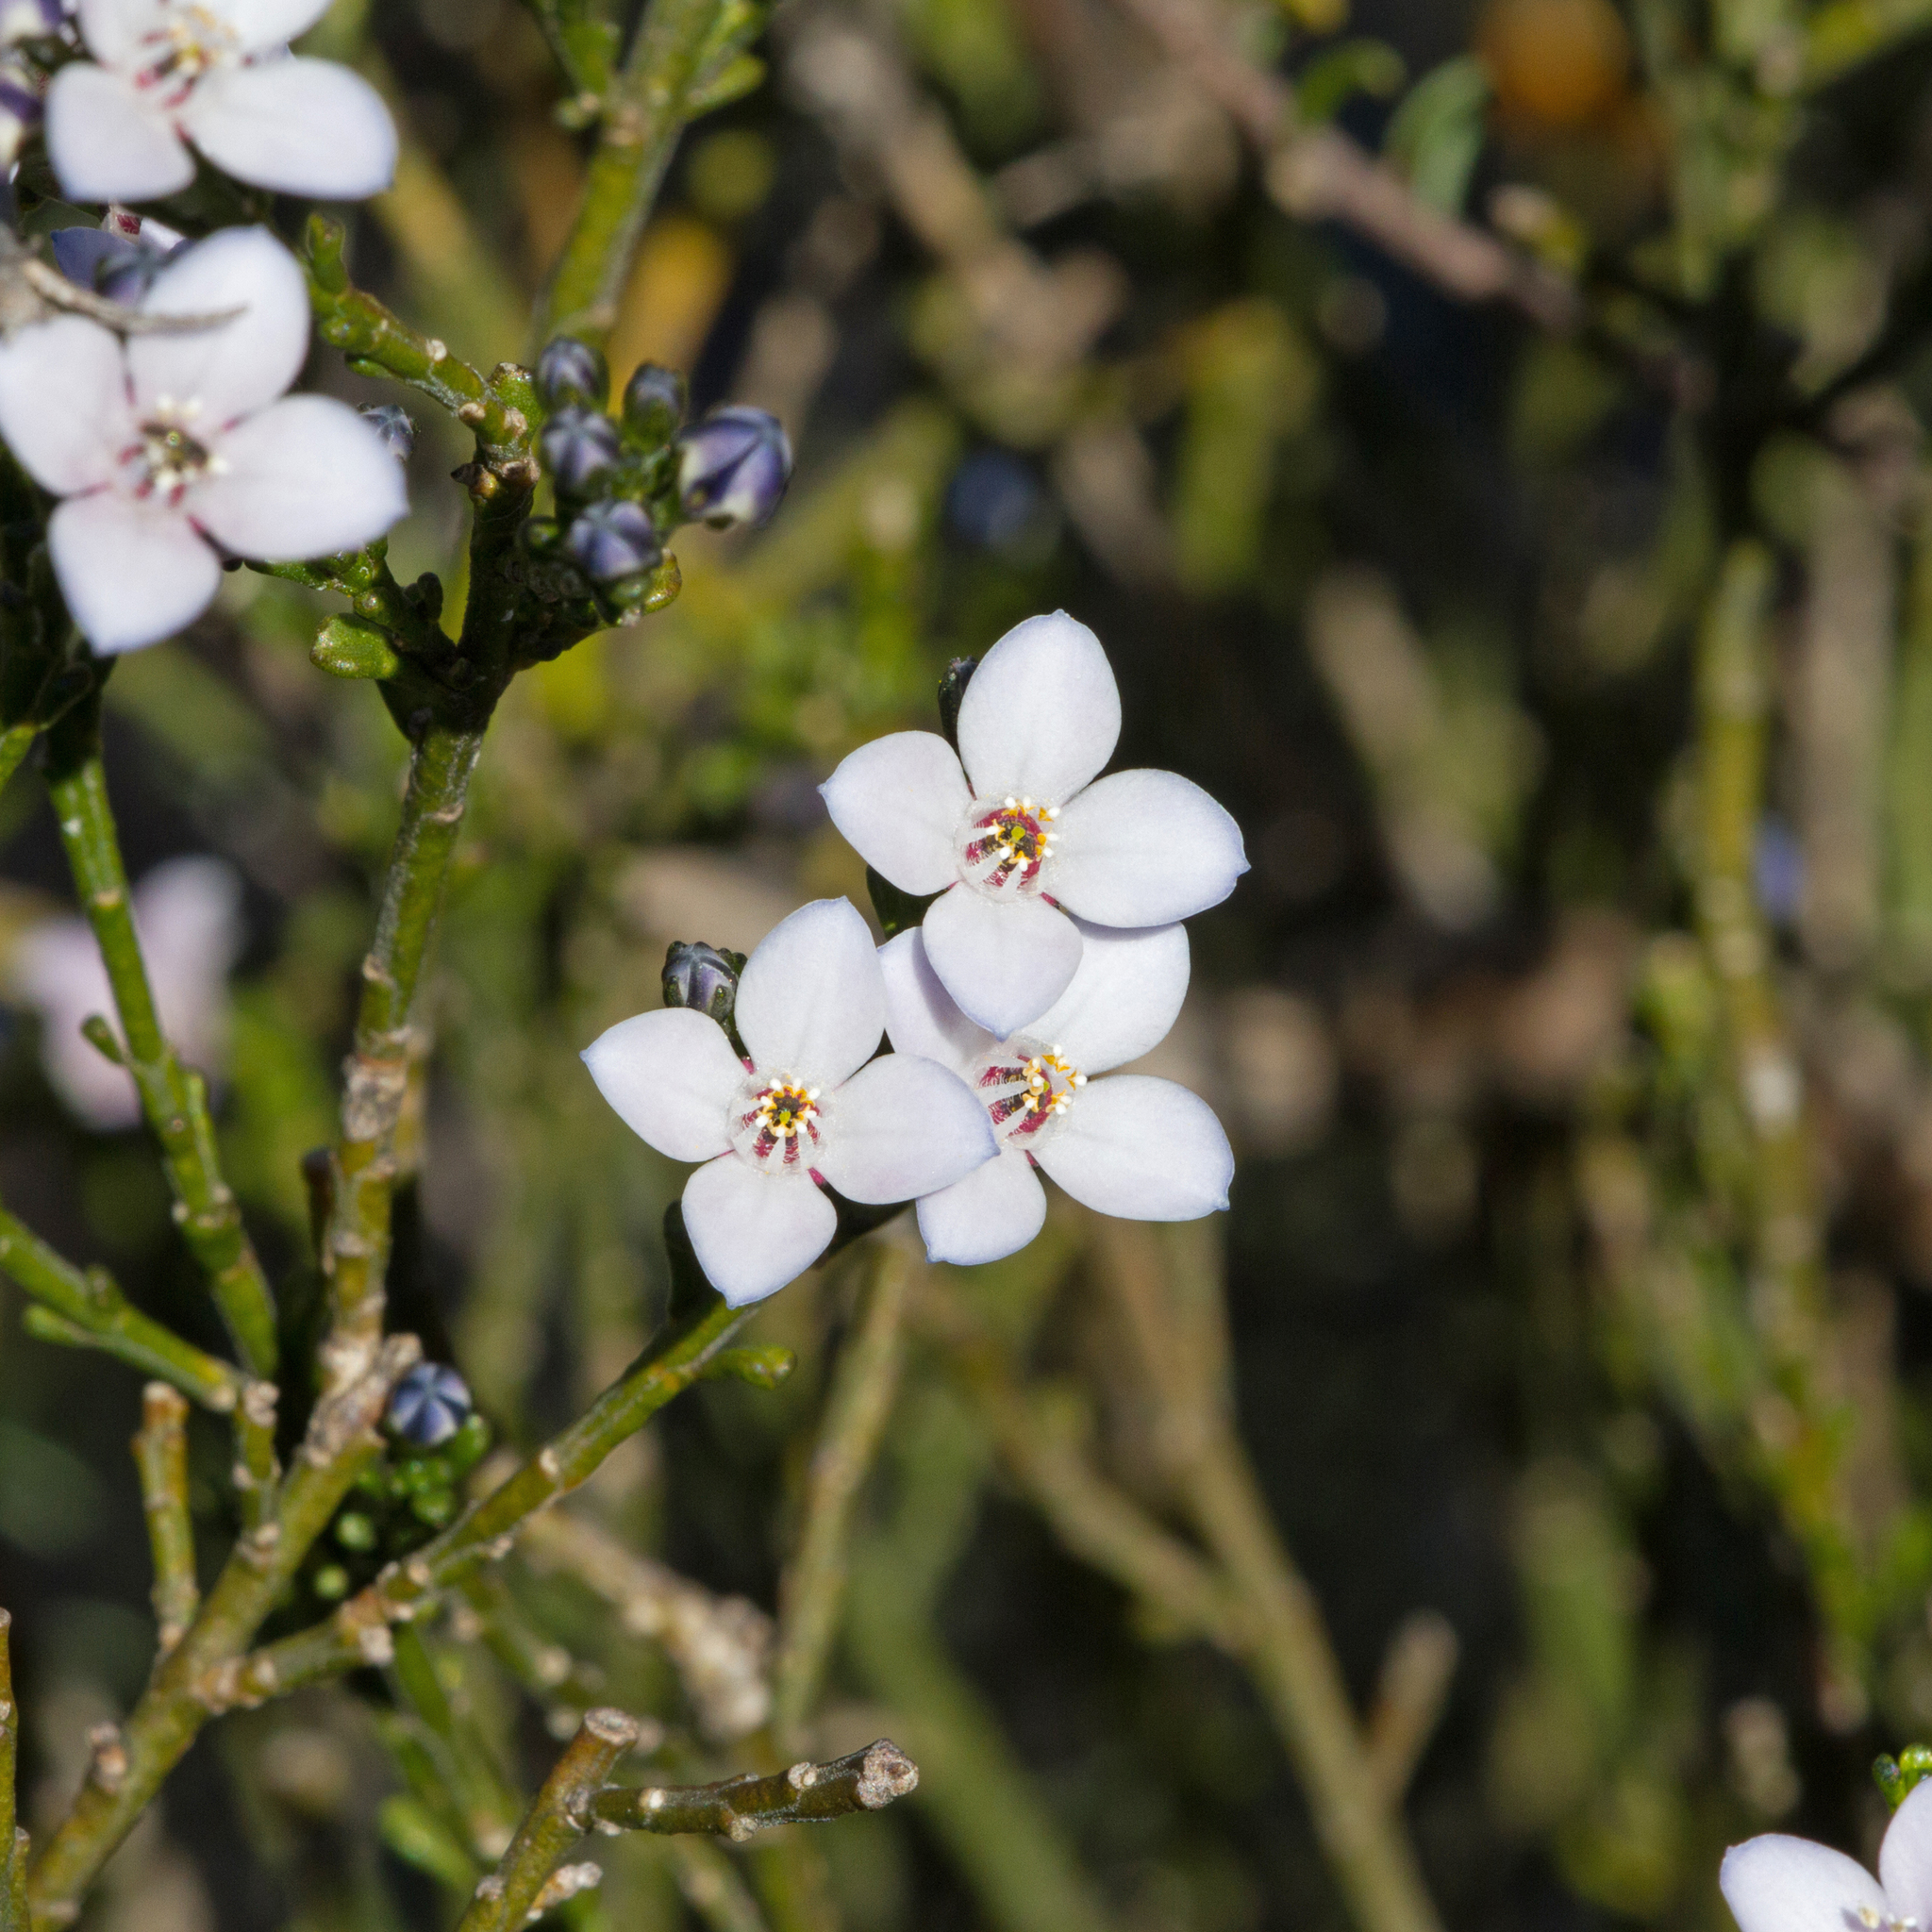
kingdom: Plantae
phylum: Tracheophyta
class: Magnoliopsida
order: Sapindales
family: Rutaceae
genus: Cyanothamnus
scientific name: Cyanothamnus coerulescens
